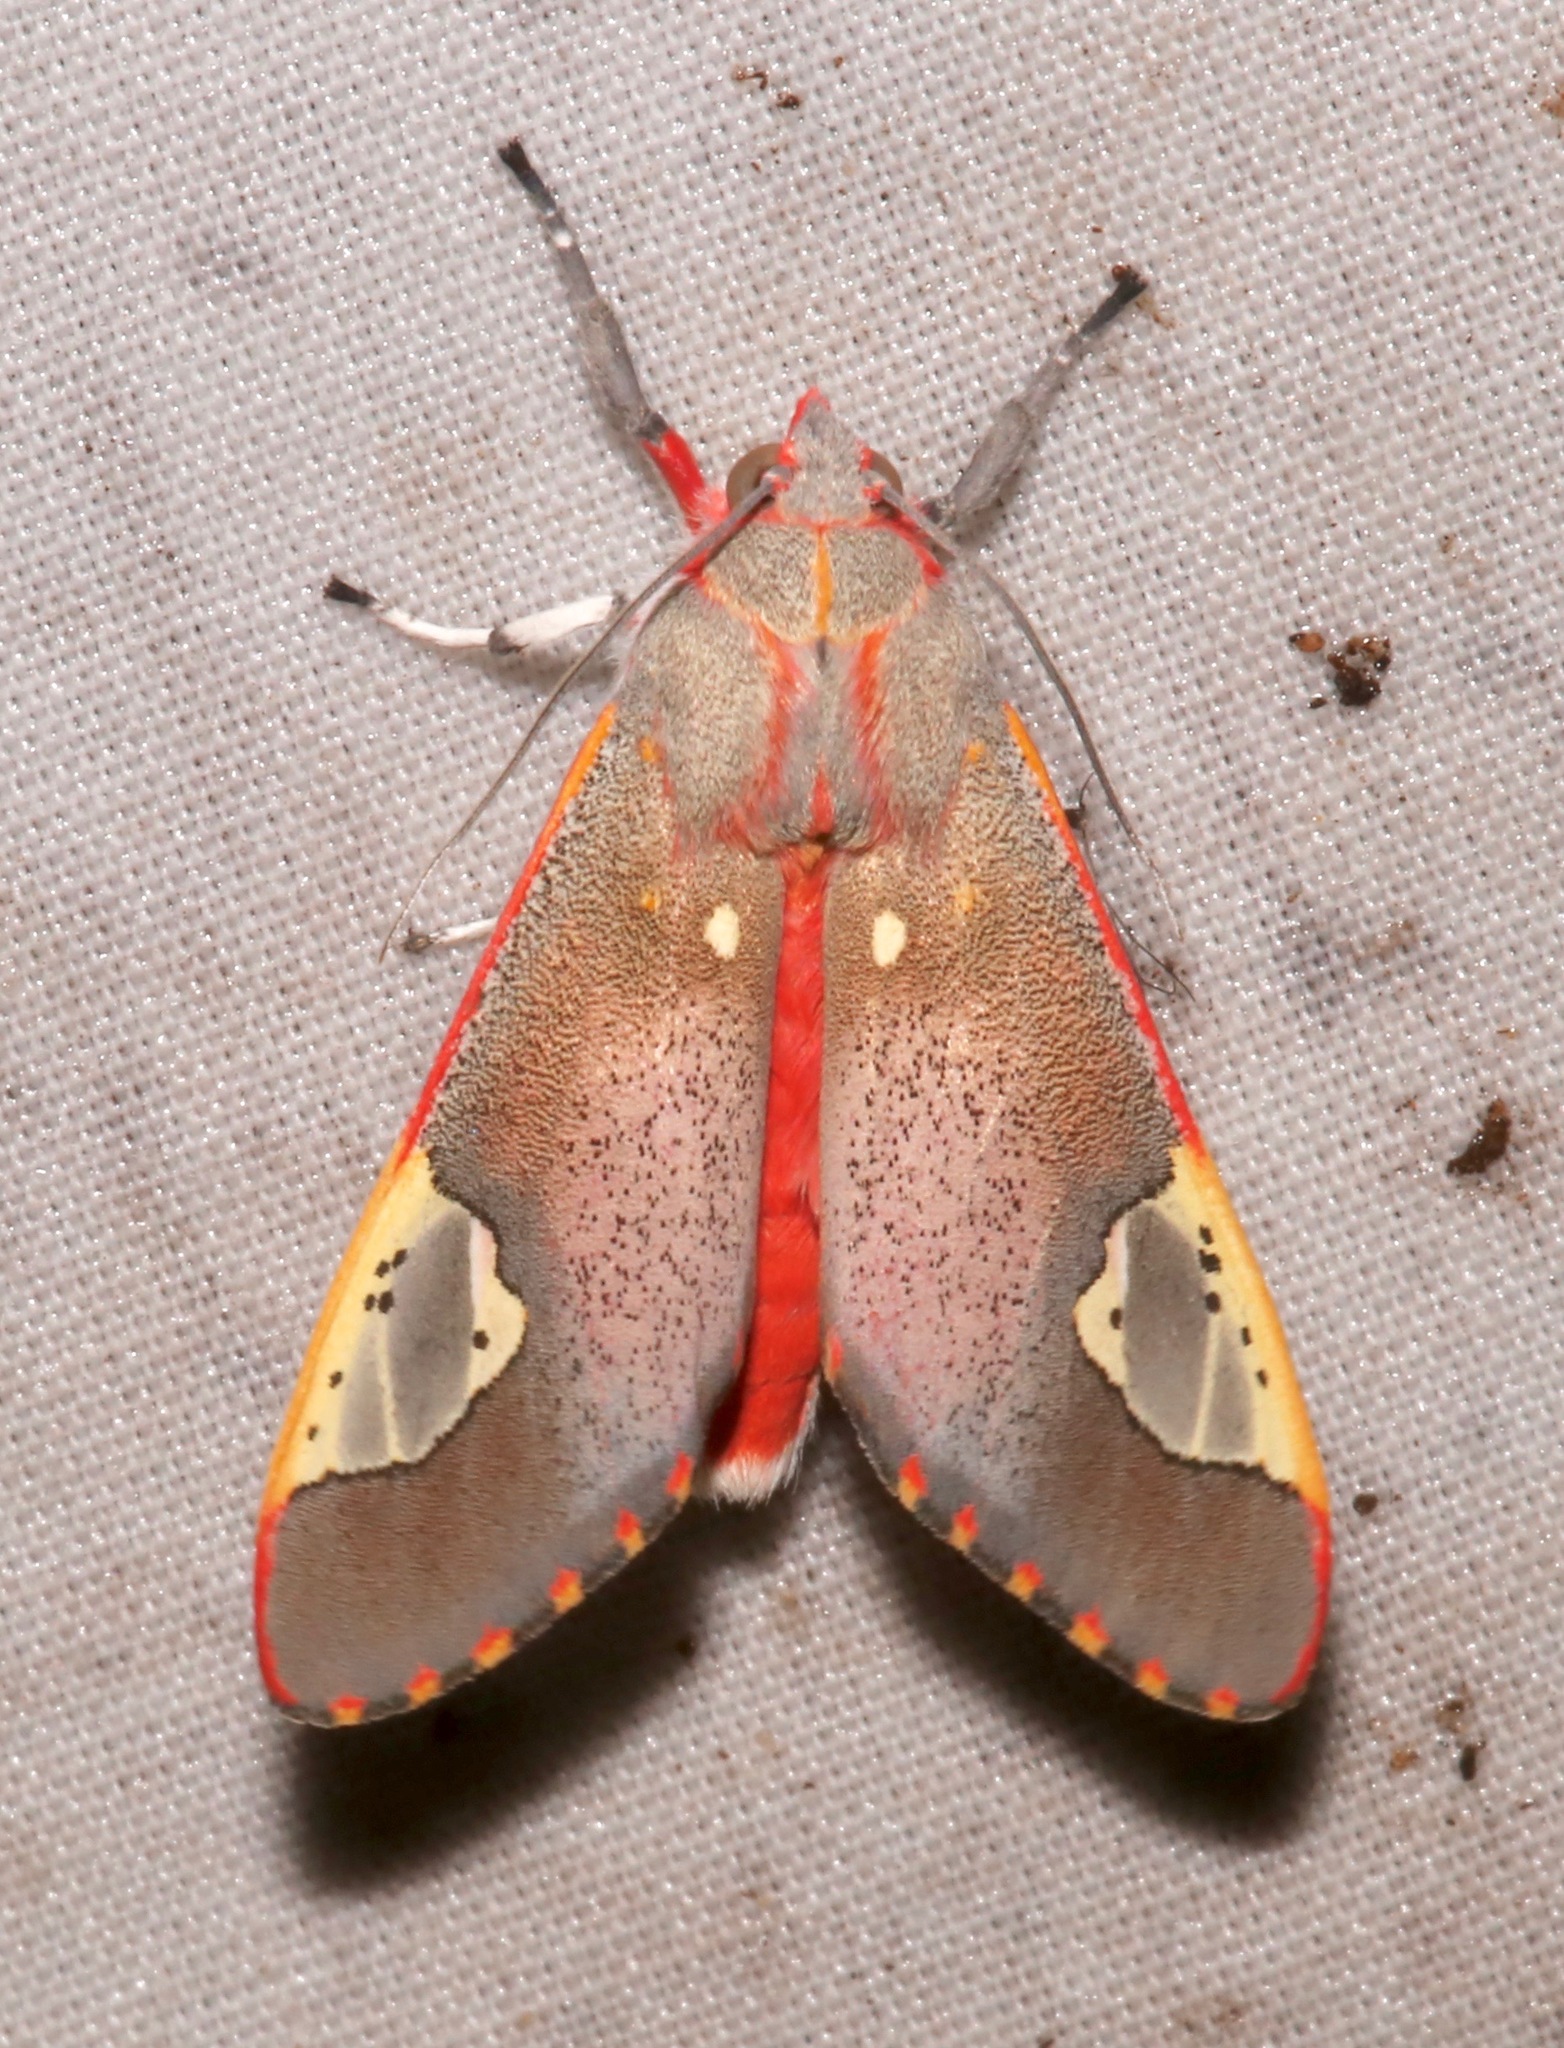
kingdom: Animalia
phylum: Arthropoda
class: Insecta
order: Lepidoptera
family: Erebidae
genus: Bertholdia
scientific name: Bertholdia trigona
